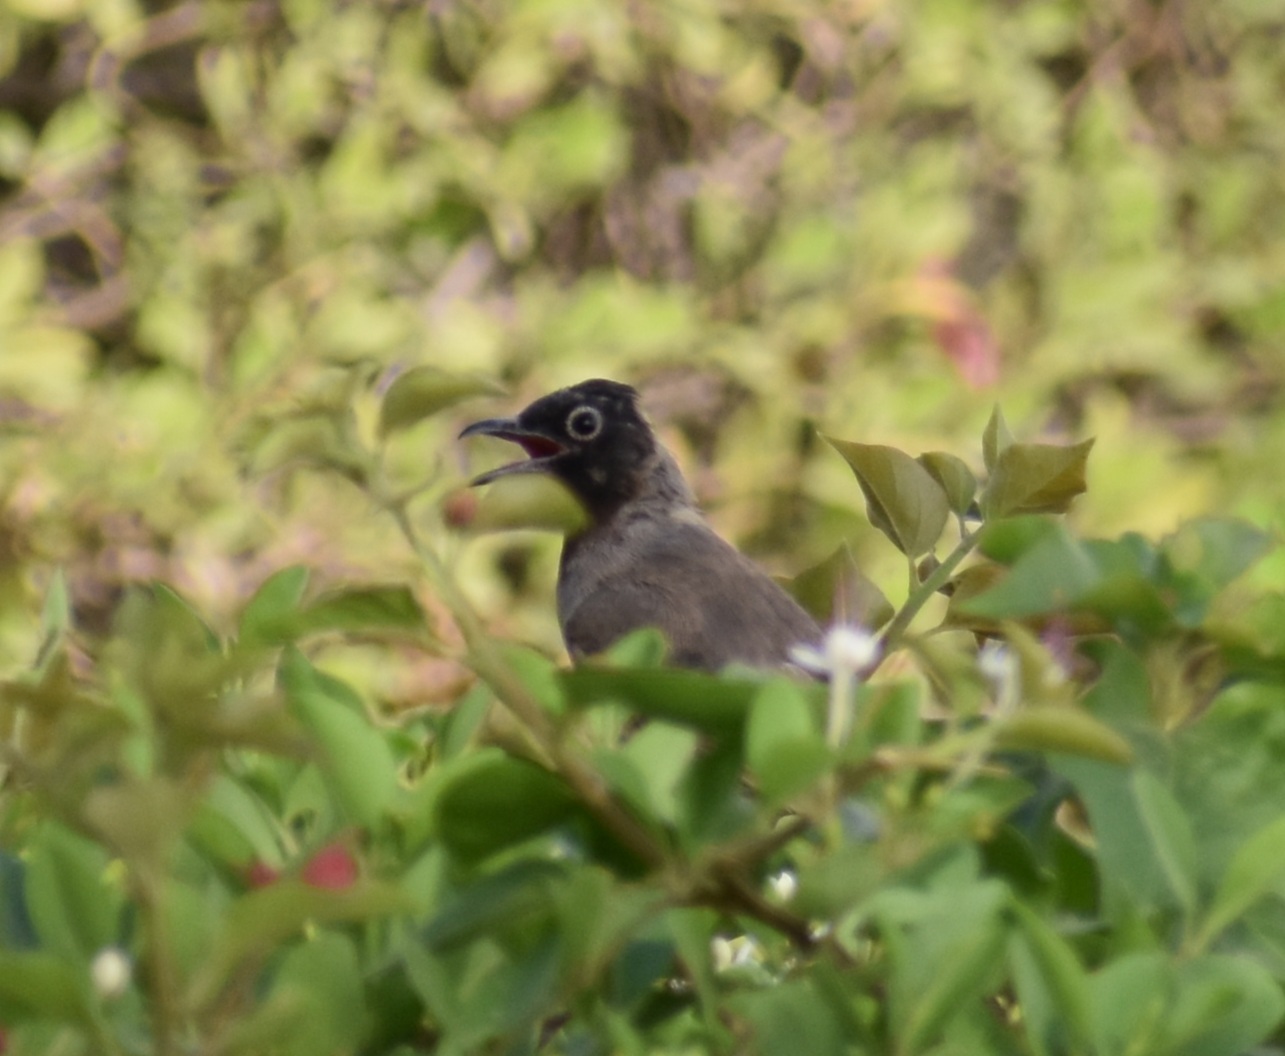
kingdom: Animalia
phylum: Chordata
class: Aves
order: Passeriformes
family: Pycnonotidae
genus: Pycnonotus
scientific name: Pycnonotus xanthopygos
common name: White-spectacled bulbul
